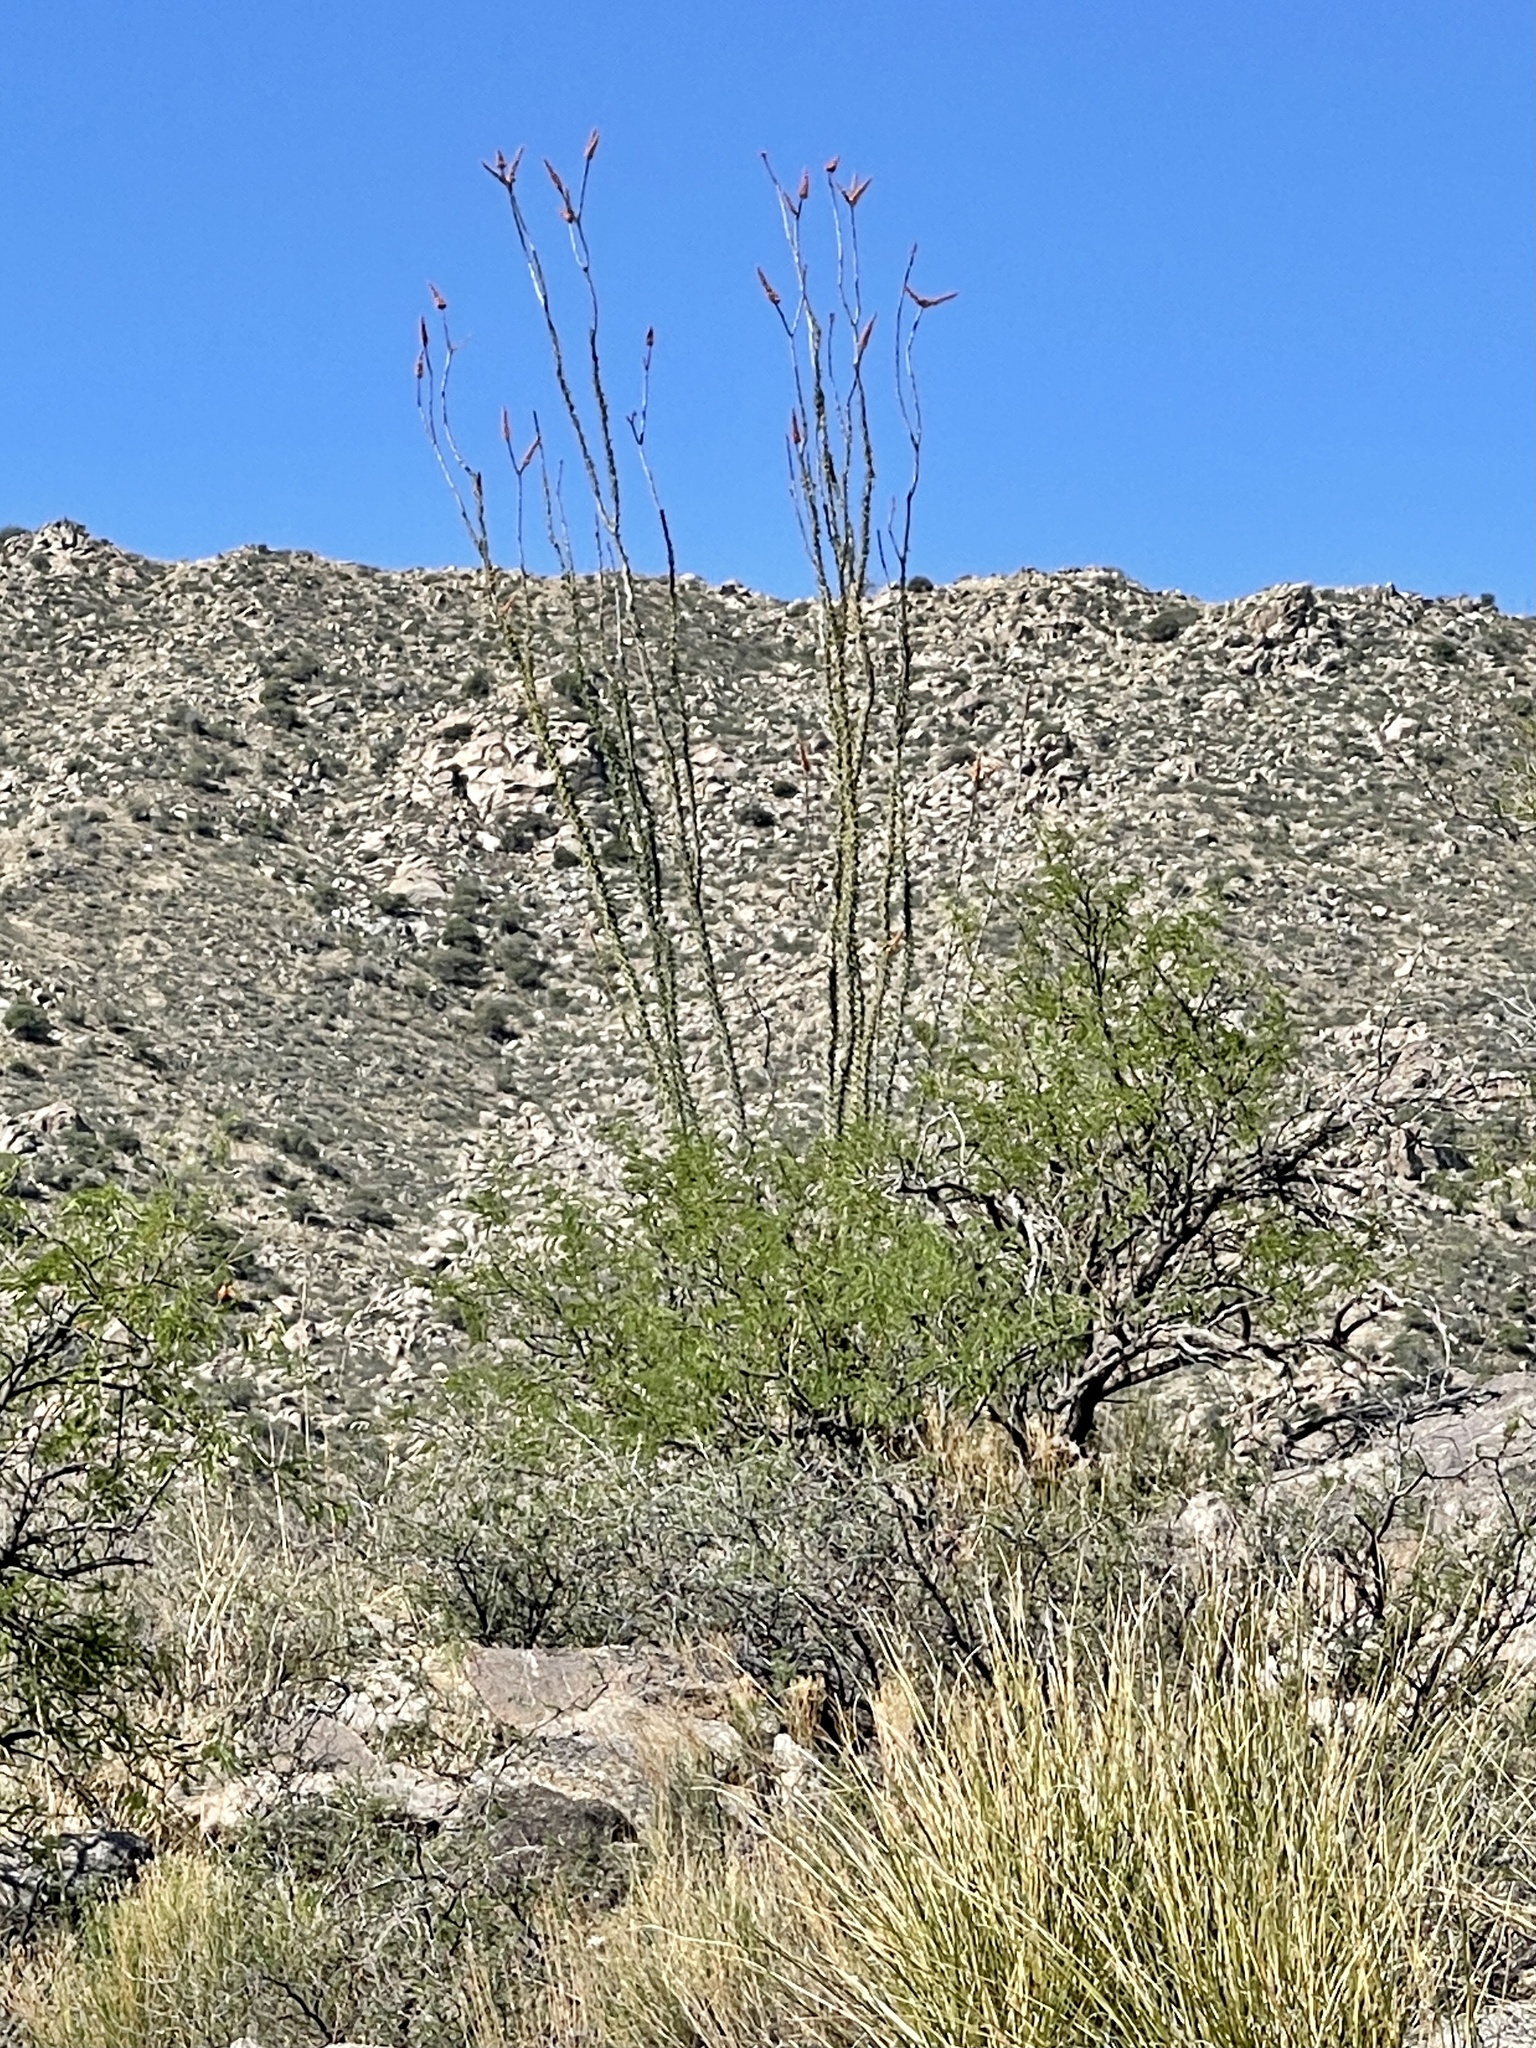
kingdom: Plantae
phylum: Tracheophyta
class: Magnoliopsida
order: Ericales
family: Fouquieriaceae
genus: Fouquieria
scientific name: Fouquieria splendens
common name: Vine-cactus
